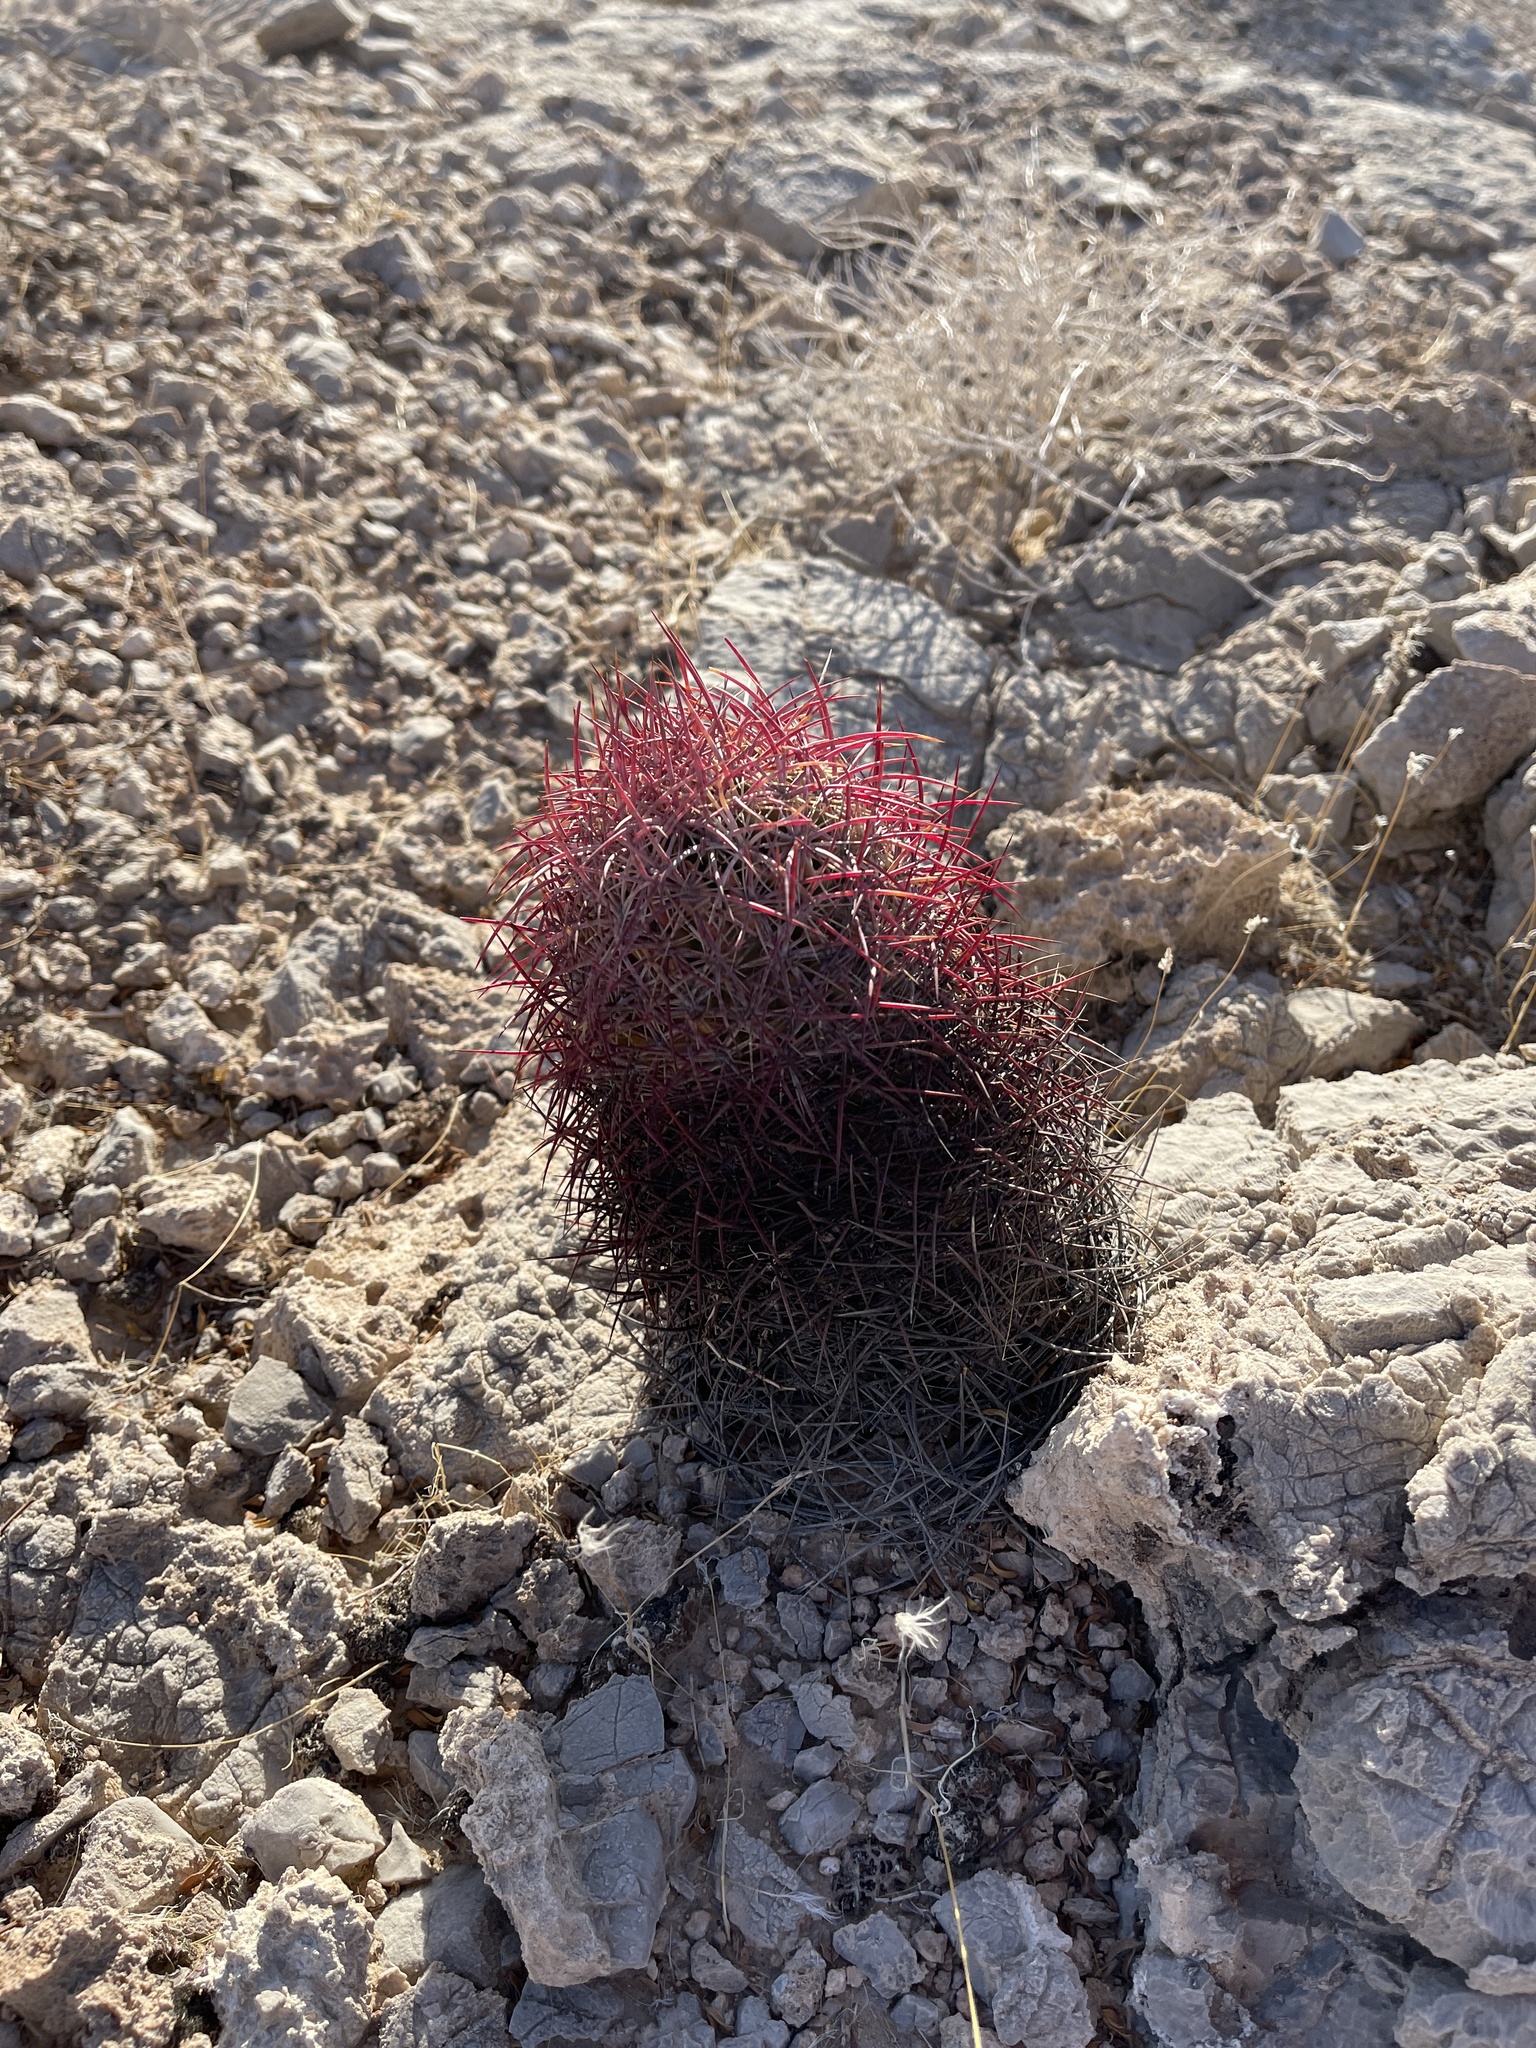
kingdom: Plantae
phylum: Tracheophyta
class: Magnoliopsida
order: Caryophyllales
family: Cactaceae
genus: Sclerocactus
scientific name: Sclerocactus johnsonii
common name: Eight-spine fishhook cactus
